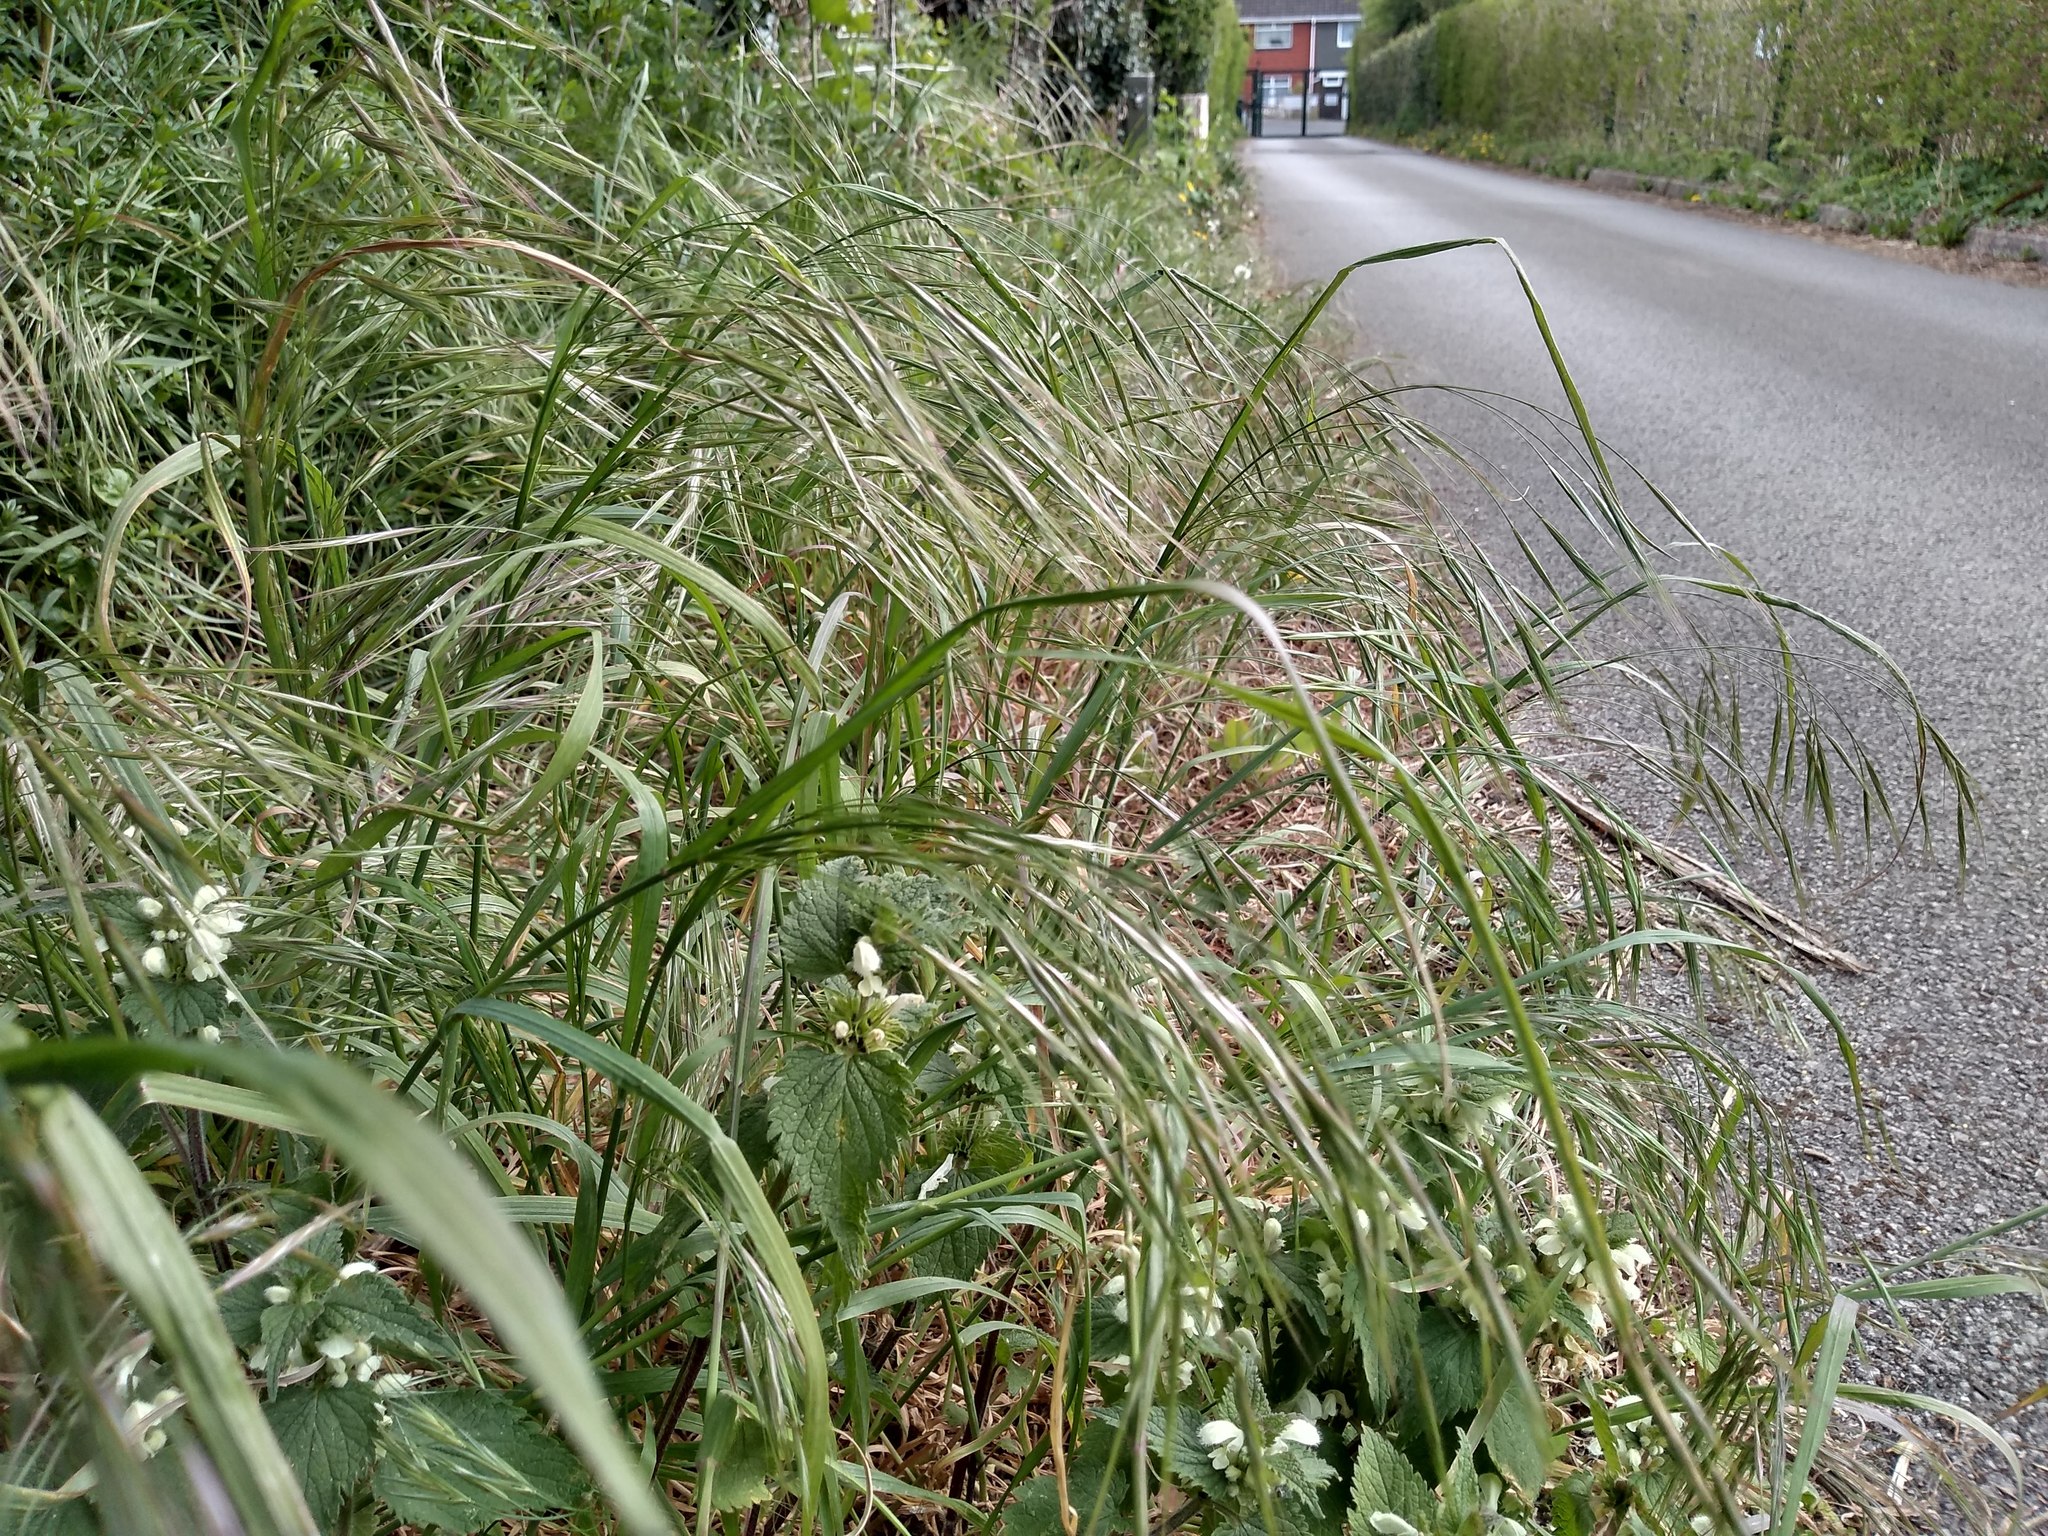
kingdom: Plantae
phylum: Tracheophyta
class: Liliopsida
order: Poales
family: Poaceae
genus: Bromus
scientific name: Bromus sterilis
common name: Poverty brome
